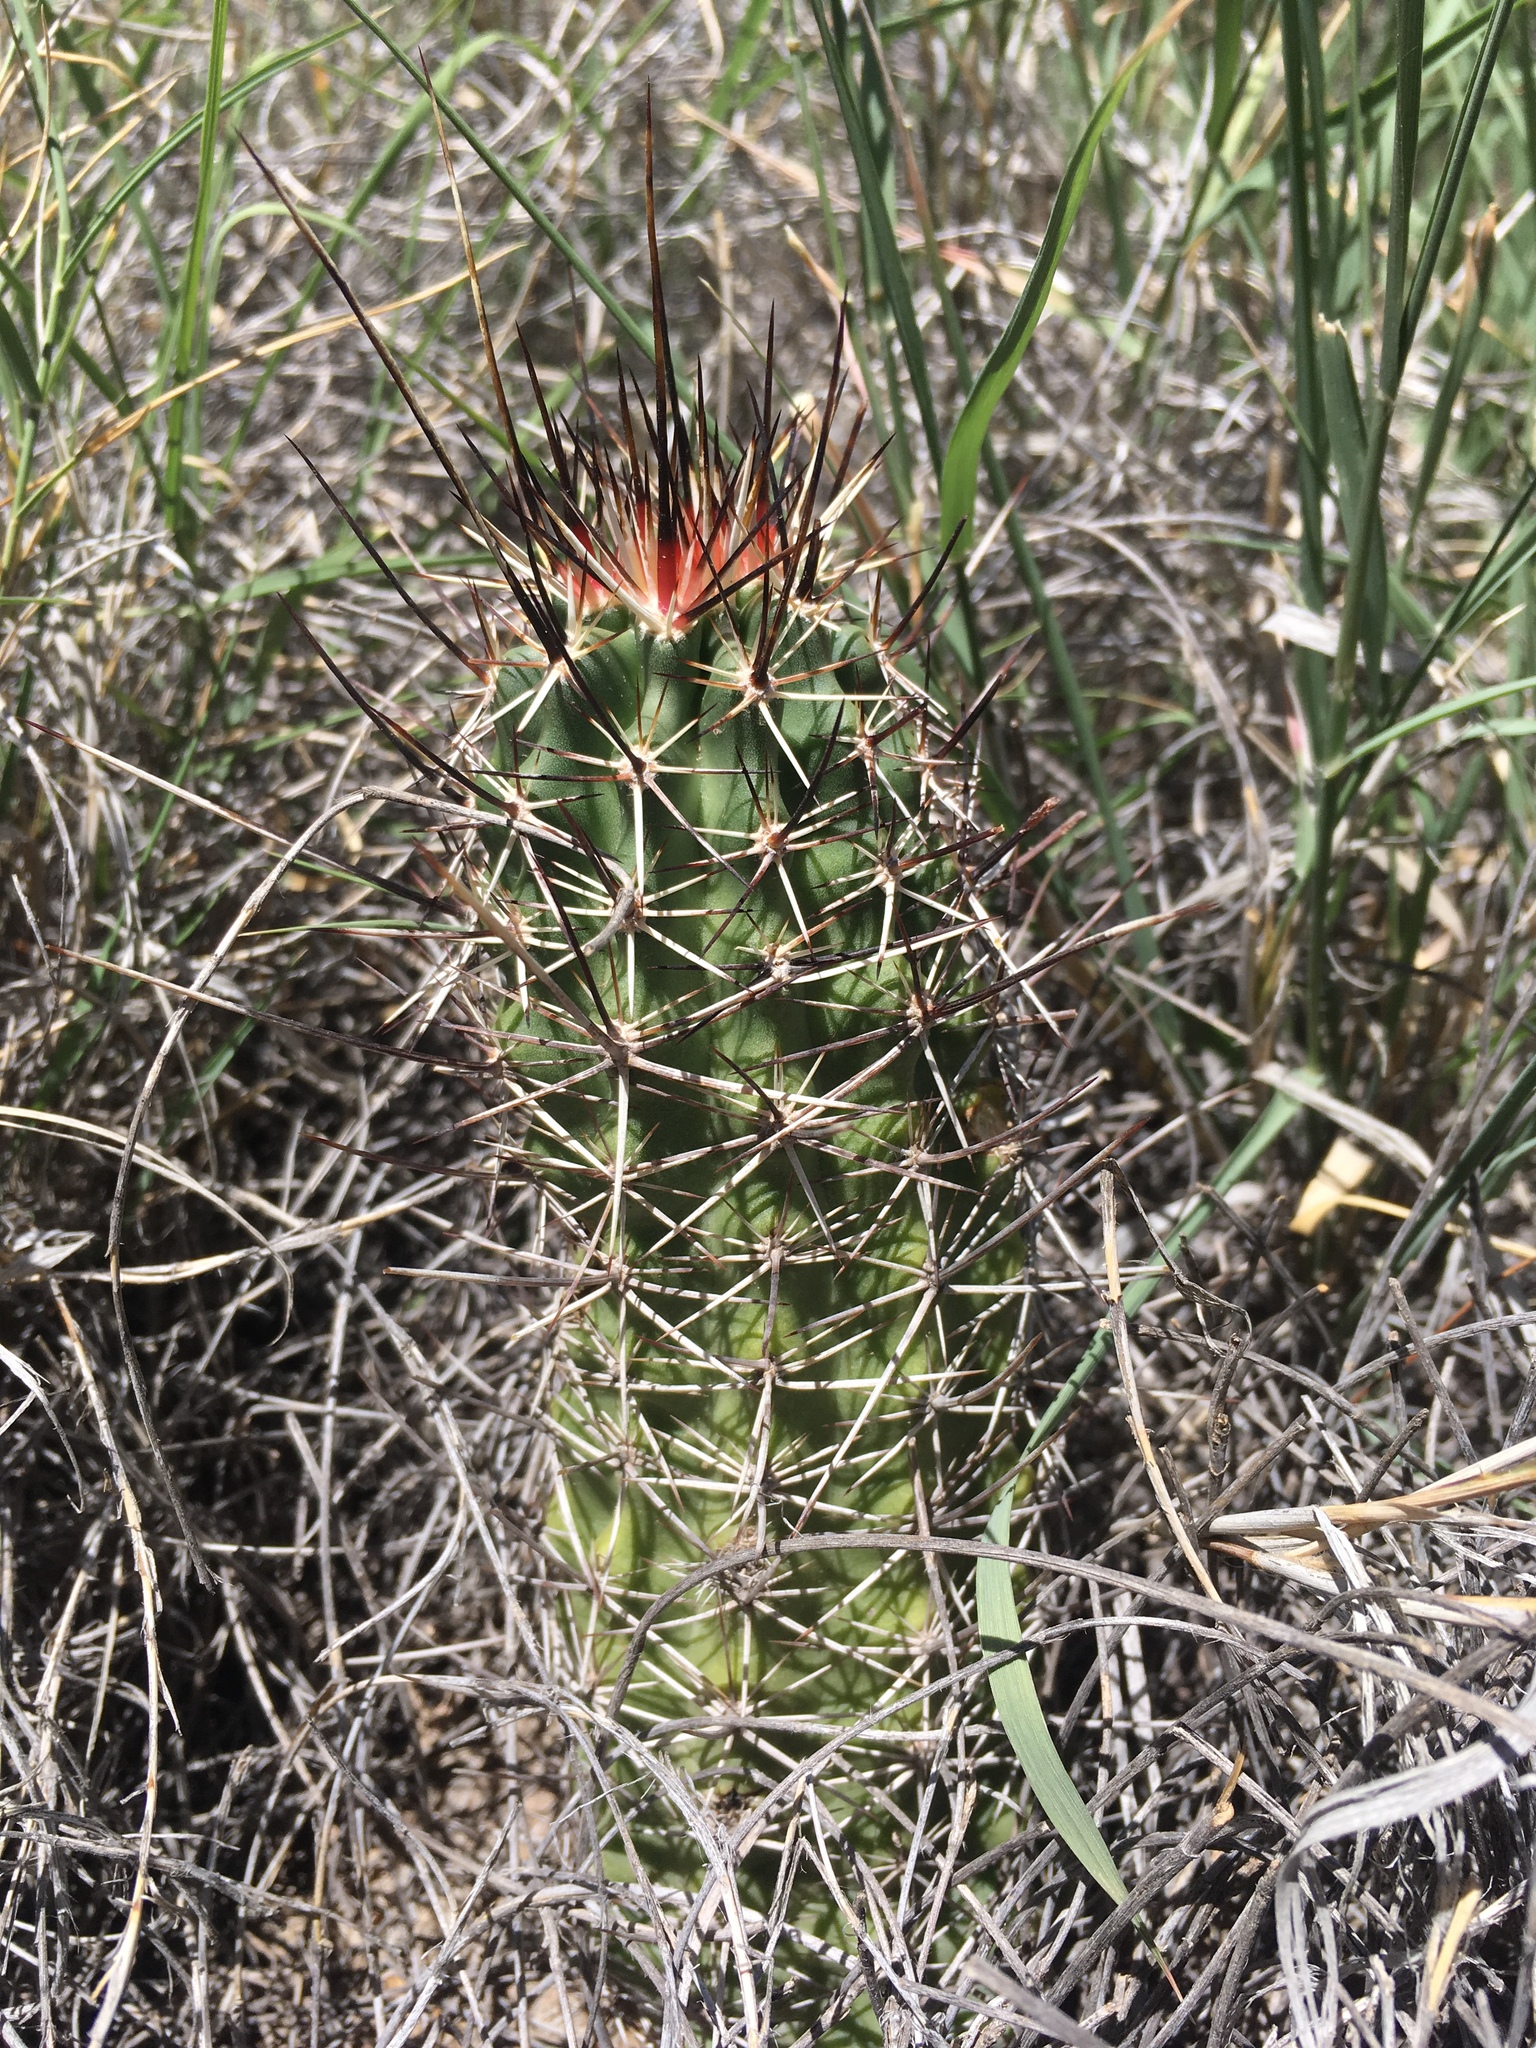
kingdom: Plantae
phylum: Tracheophyta
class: Magnoliopsida
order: Caryophyllales
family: Cactaceae
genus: Echinocereus
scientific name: Echinocereus fendleri
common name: Fendler's hedgehog cactus
